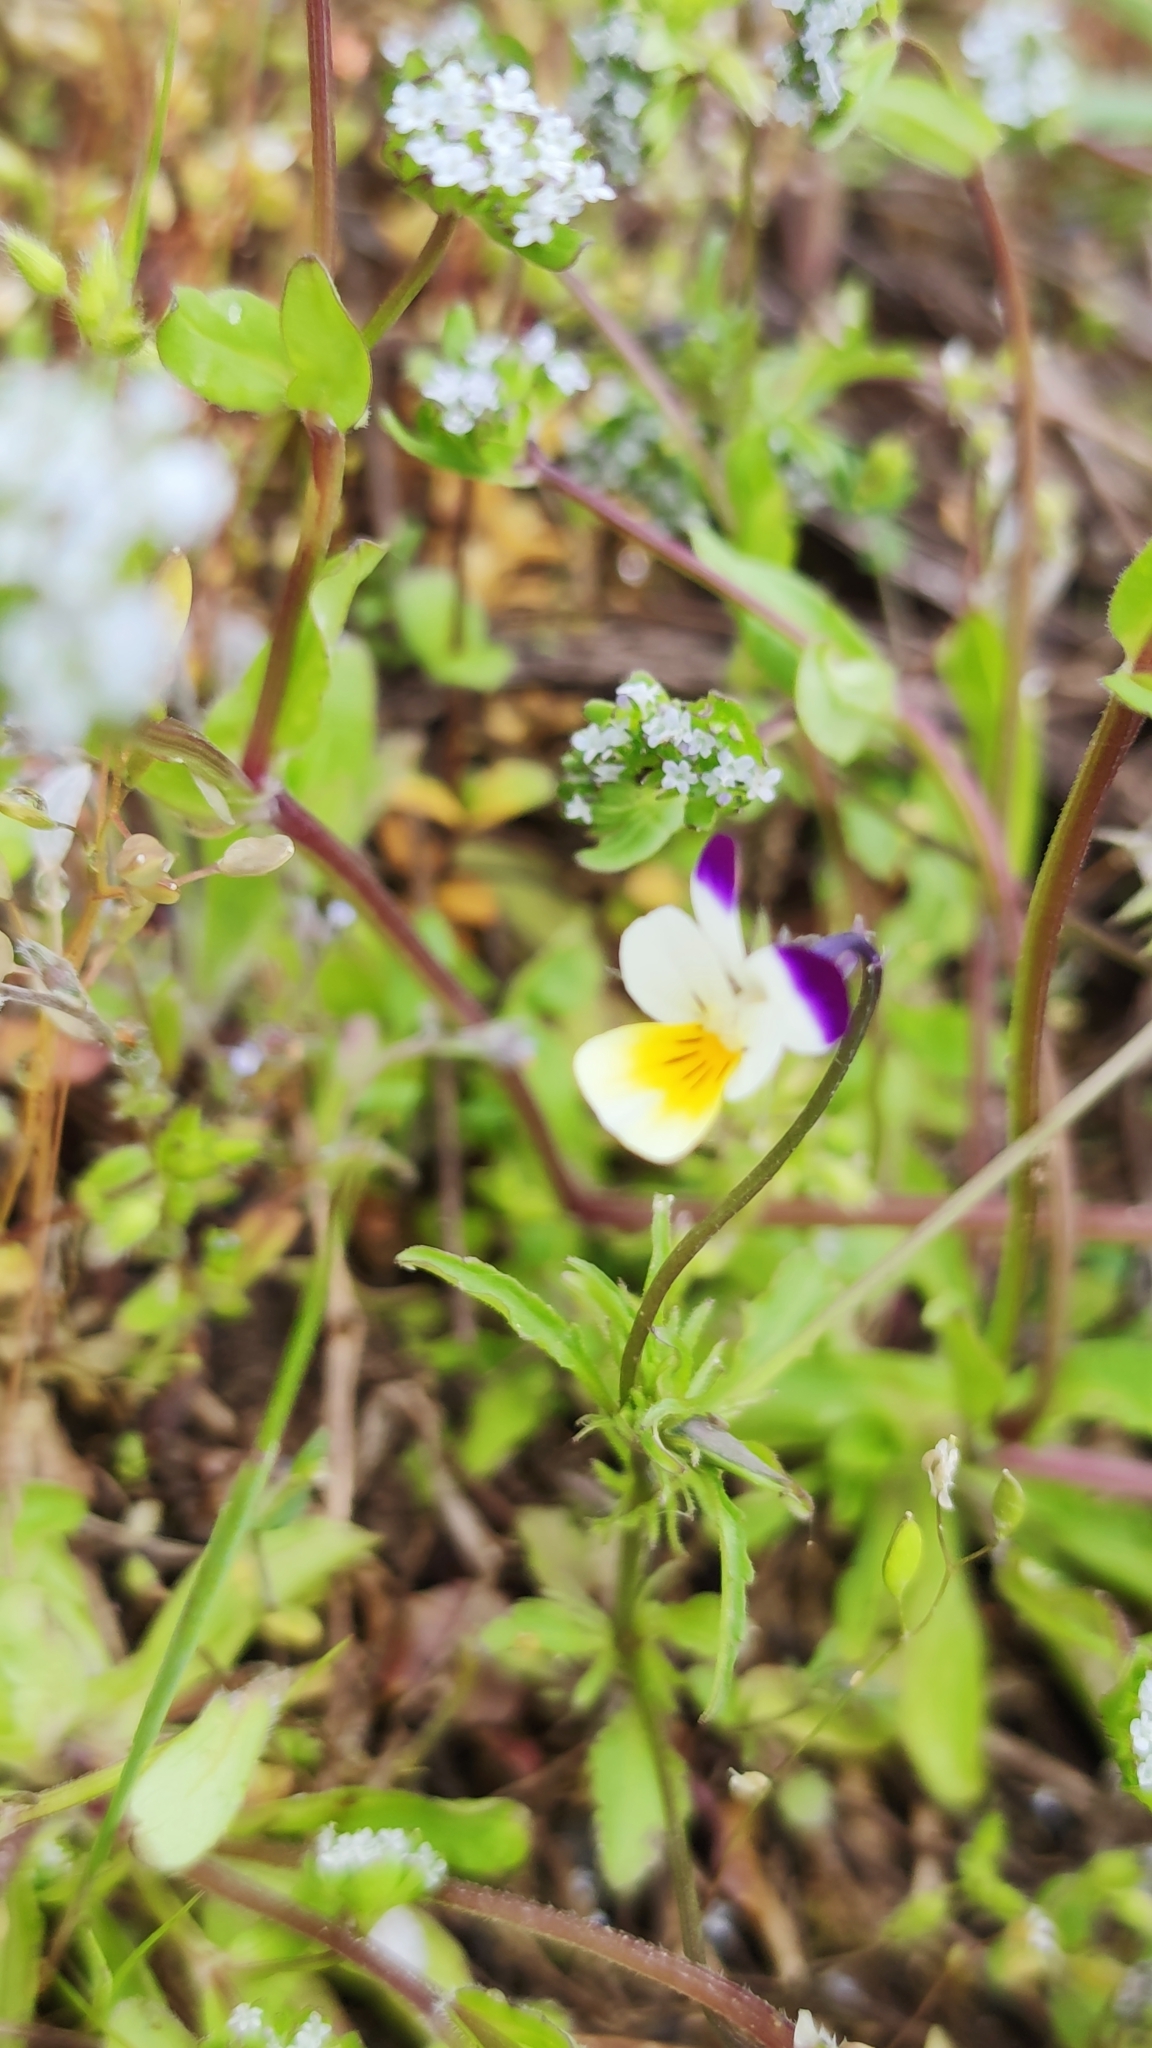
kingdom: Plantae
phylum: Tracheophyta
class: Magnoliopsida
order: Malpighiales
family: Violaceae
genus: Viola
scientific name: Viola arvensis
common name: Field pansy
